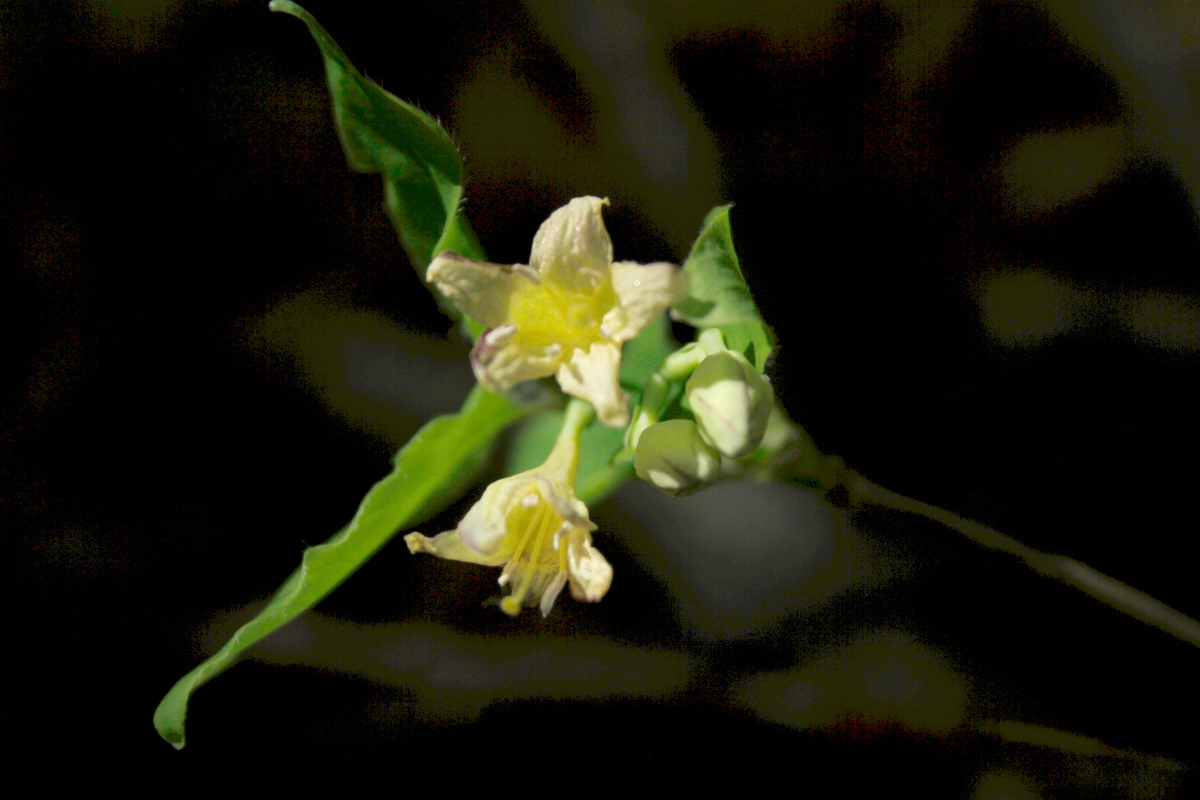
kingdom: Plantae
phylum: Tracheophyta
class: Magnoliopsida
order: Dipsacales
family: Caprifoliaceae
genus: Lonicera
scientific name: Lonicera canadensis
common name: American fly-honeysuckle
